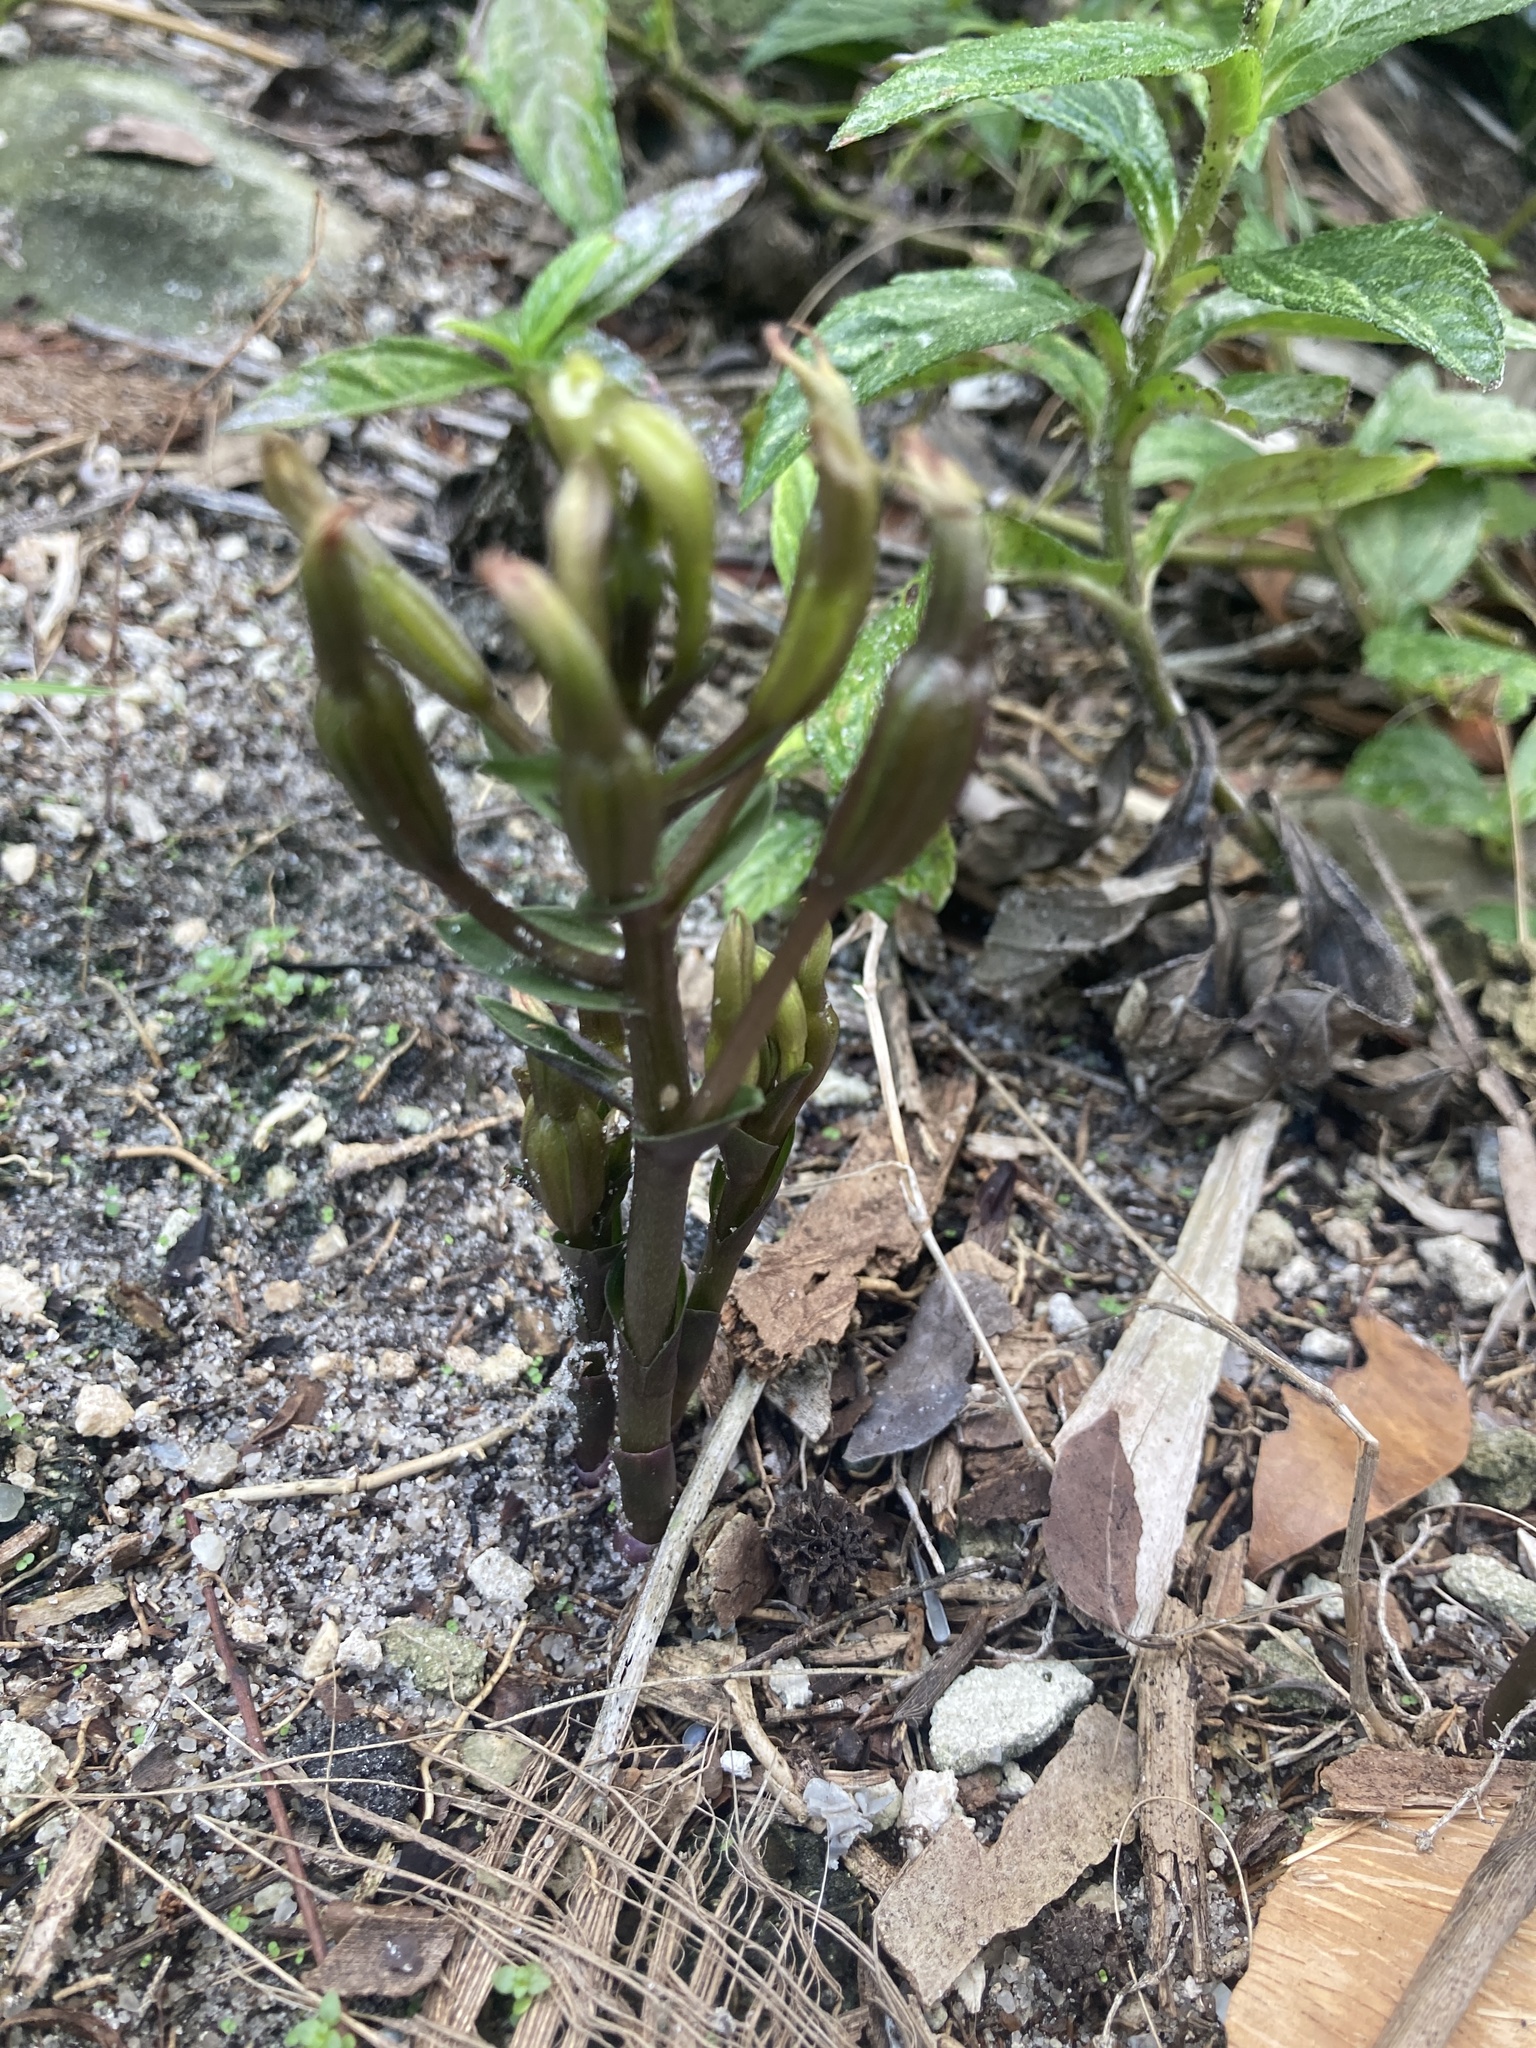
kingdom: Plantae
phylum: Tracheophyta
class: Liliopsida
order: Asparagales
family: Orchidaceae
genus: Triphora
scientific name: Triphora gentianoides
